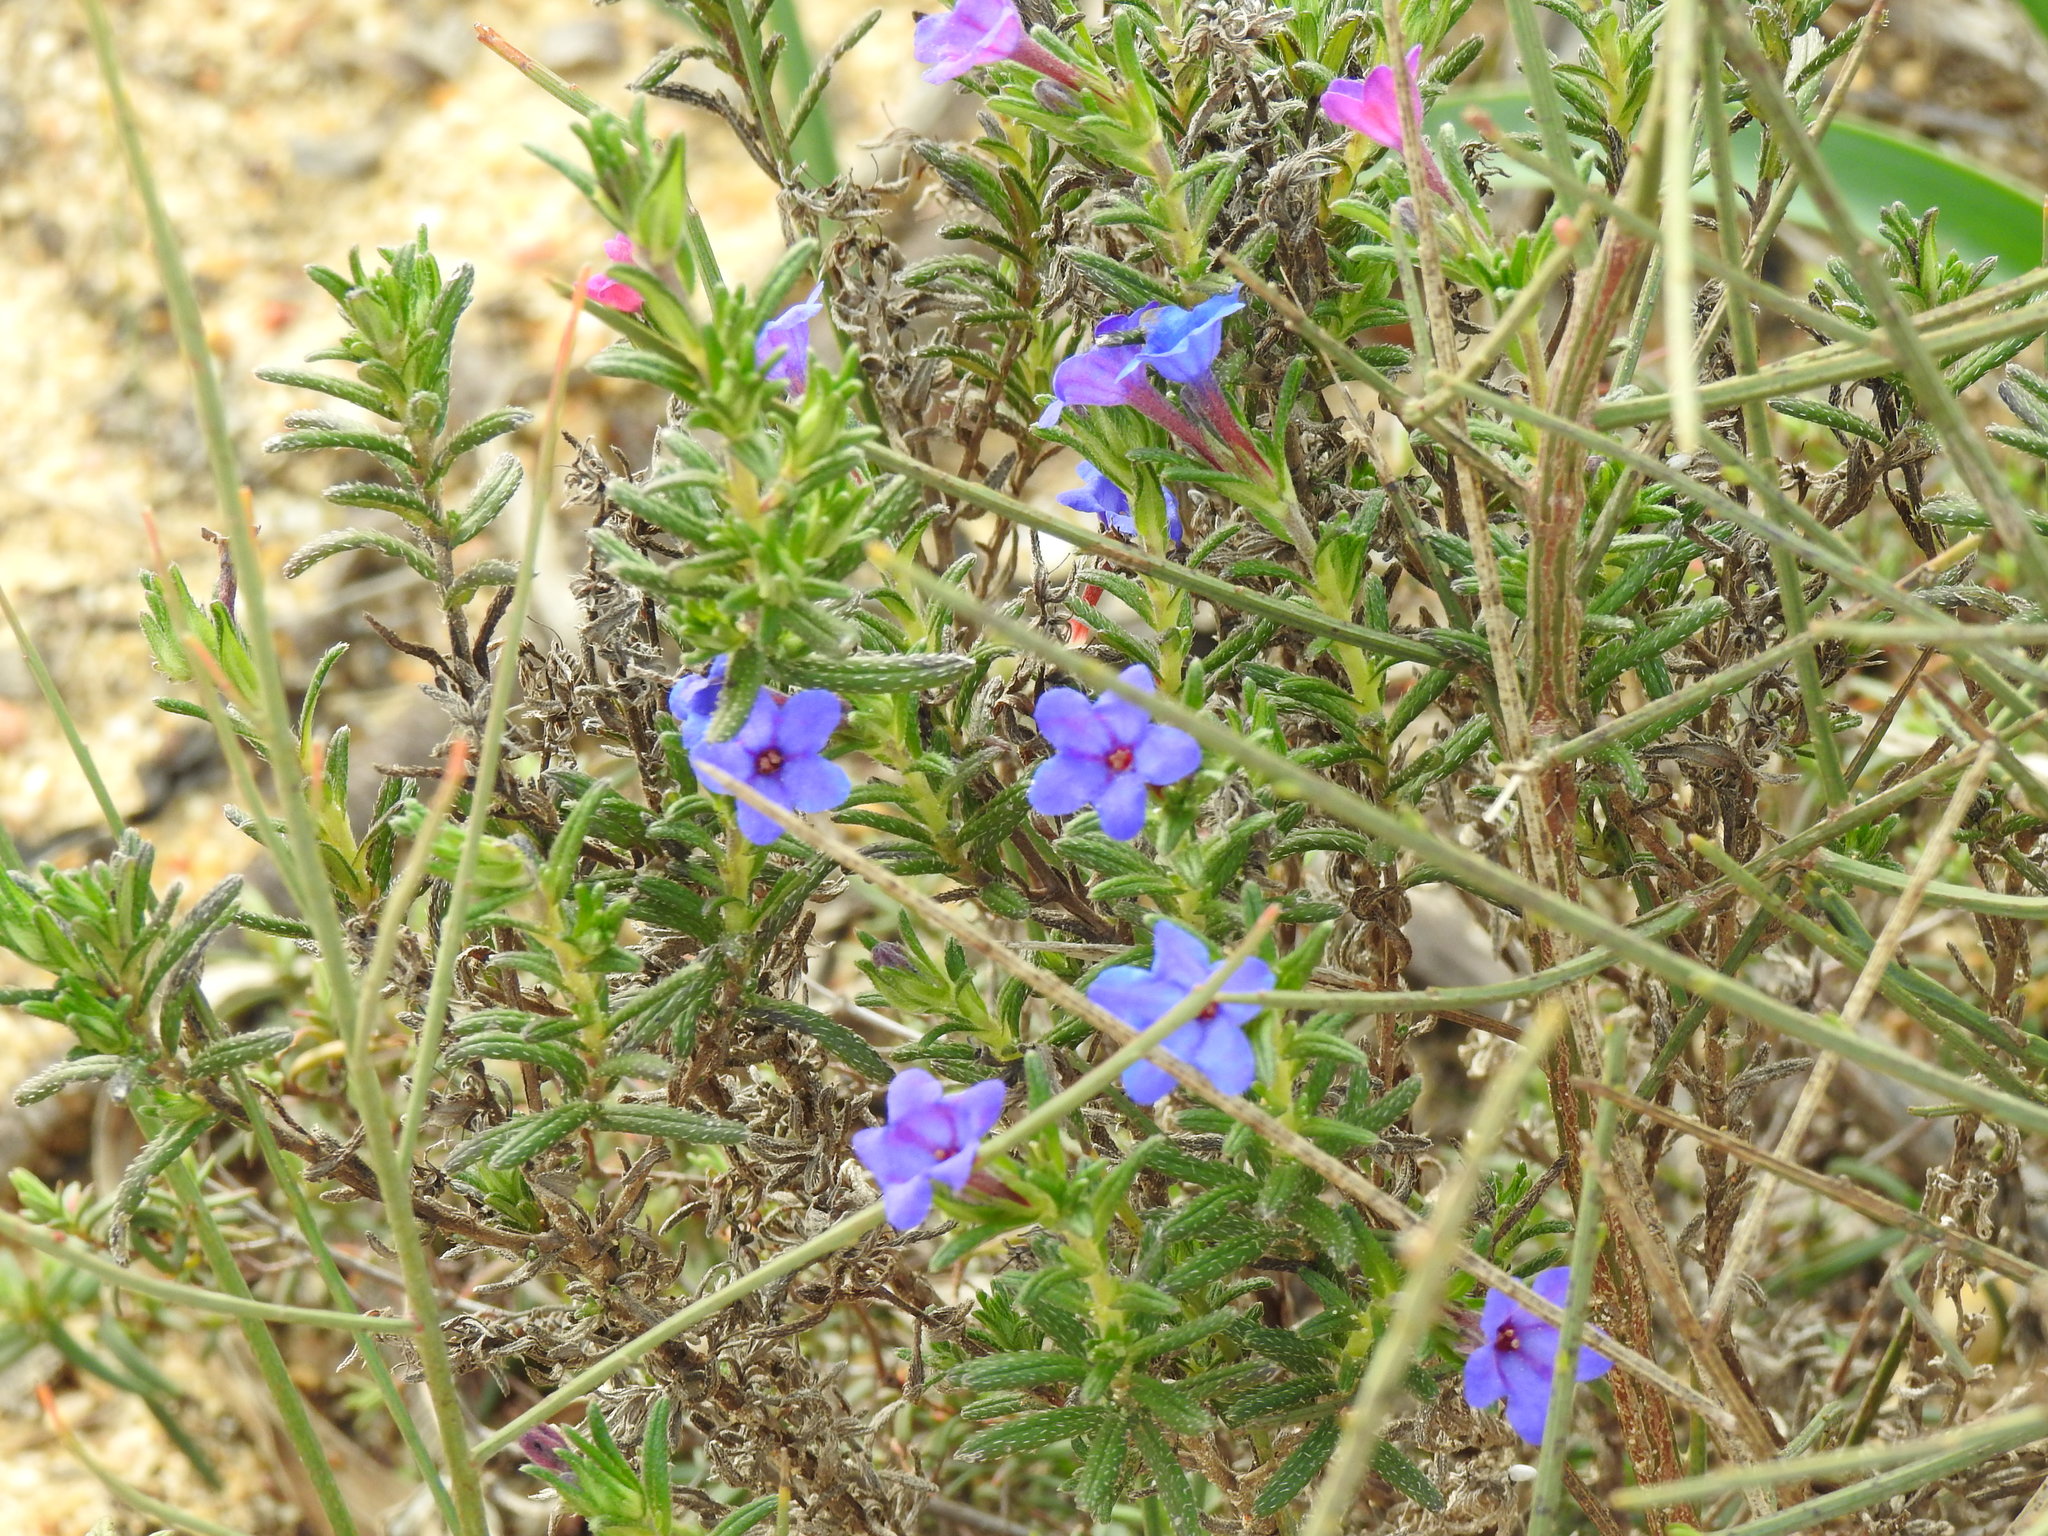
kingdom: Plantae
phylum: Tracheophyta
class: Magnoliopsida
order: Boraginales
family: Boraginaceae
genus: Glandora
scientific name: Glandora prostrata
